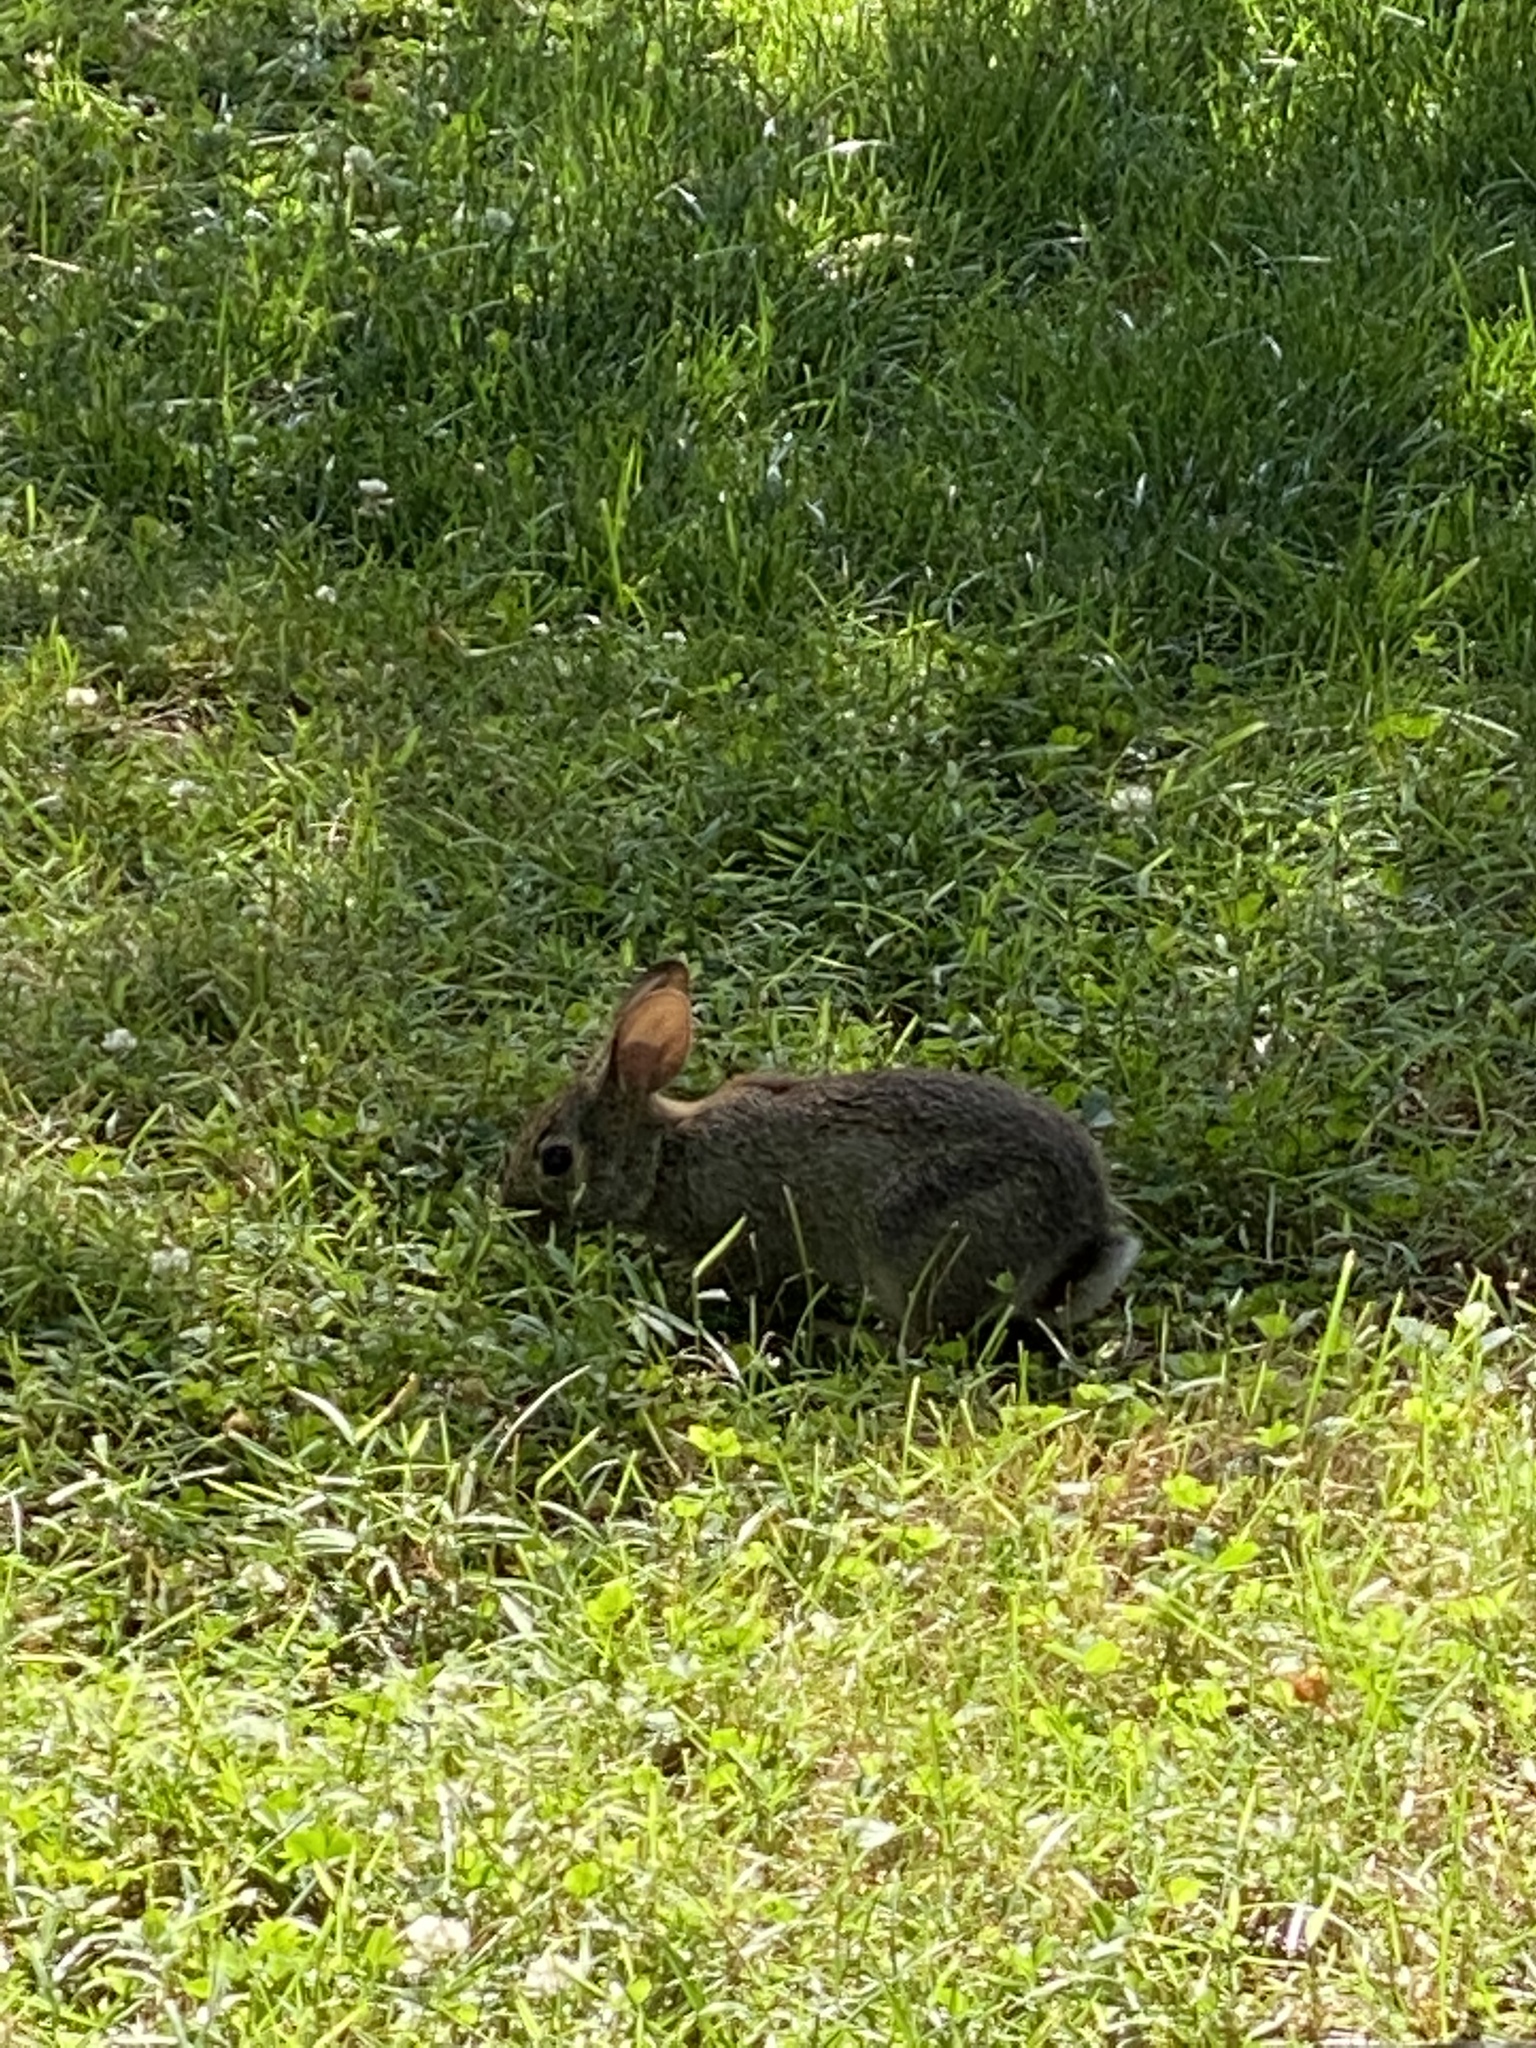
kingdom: Animalia
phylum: Chordata
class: Mammalia
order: Lagomorpha
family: Leporidae
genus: Sylvilagus
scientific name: Sylvilagus floridanus
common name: Eastern cottontail
